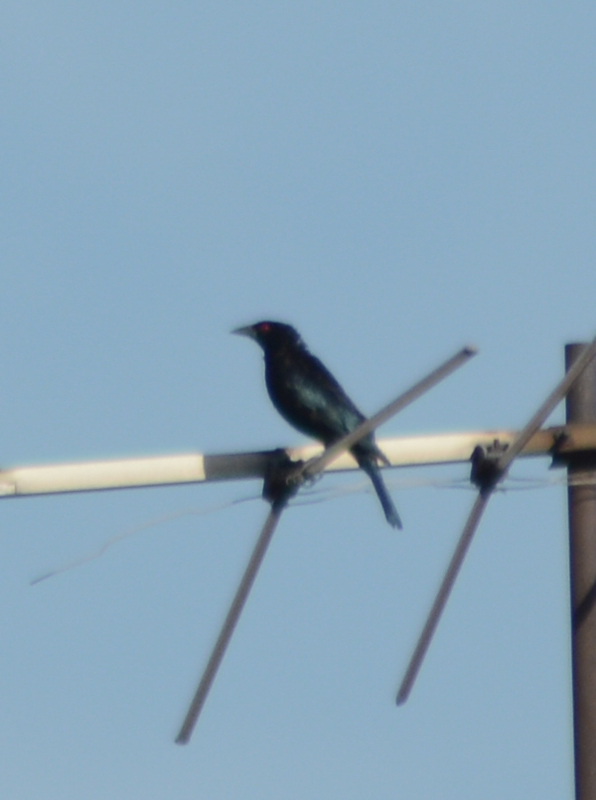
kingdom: Animalia
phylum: Chordata
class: Aves
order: Passeriformes
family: Icteridae
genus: Molothrus
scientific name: Molothrus aeneus
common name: Bronzed cowbird
